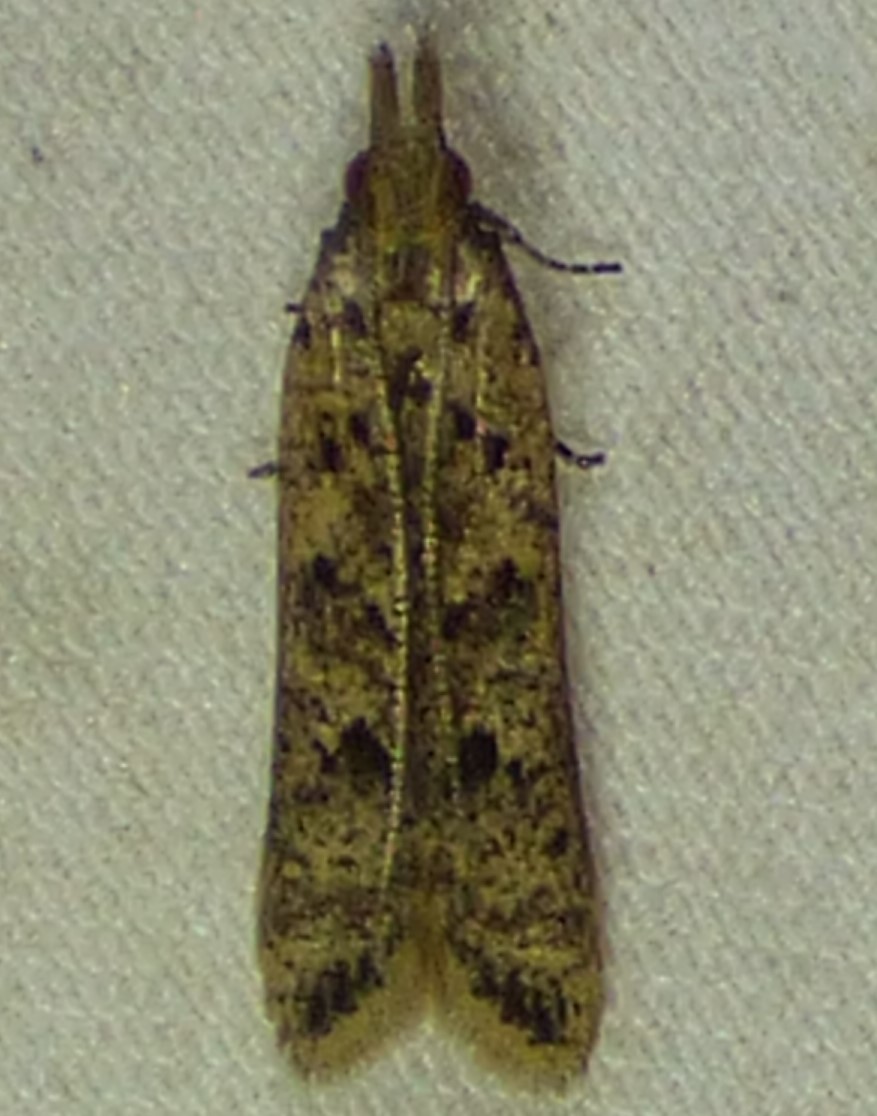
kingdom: Animalia
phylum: Arthropoda
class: Insecta
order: Lepidoptera
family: Gelechiidae
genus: Dichomeris
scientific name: Dichomeris ligulella
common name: Moth
